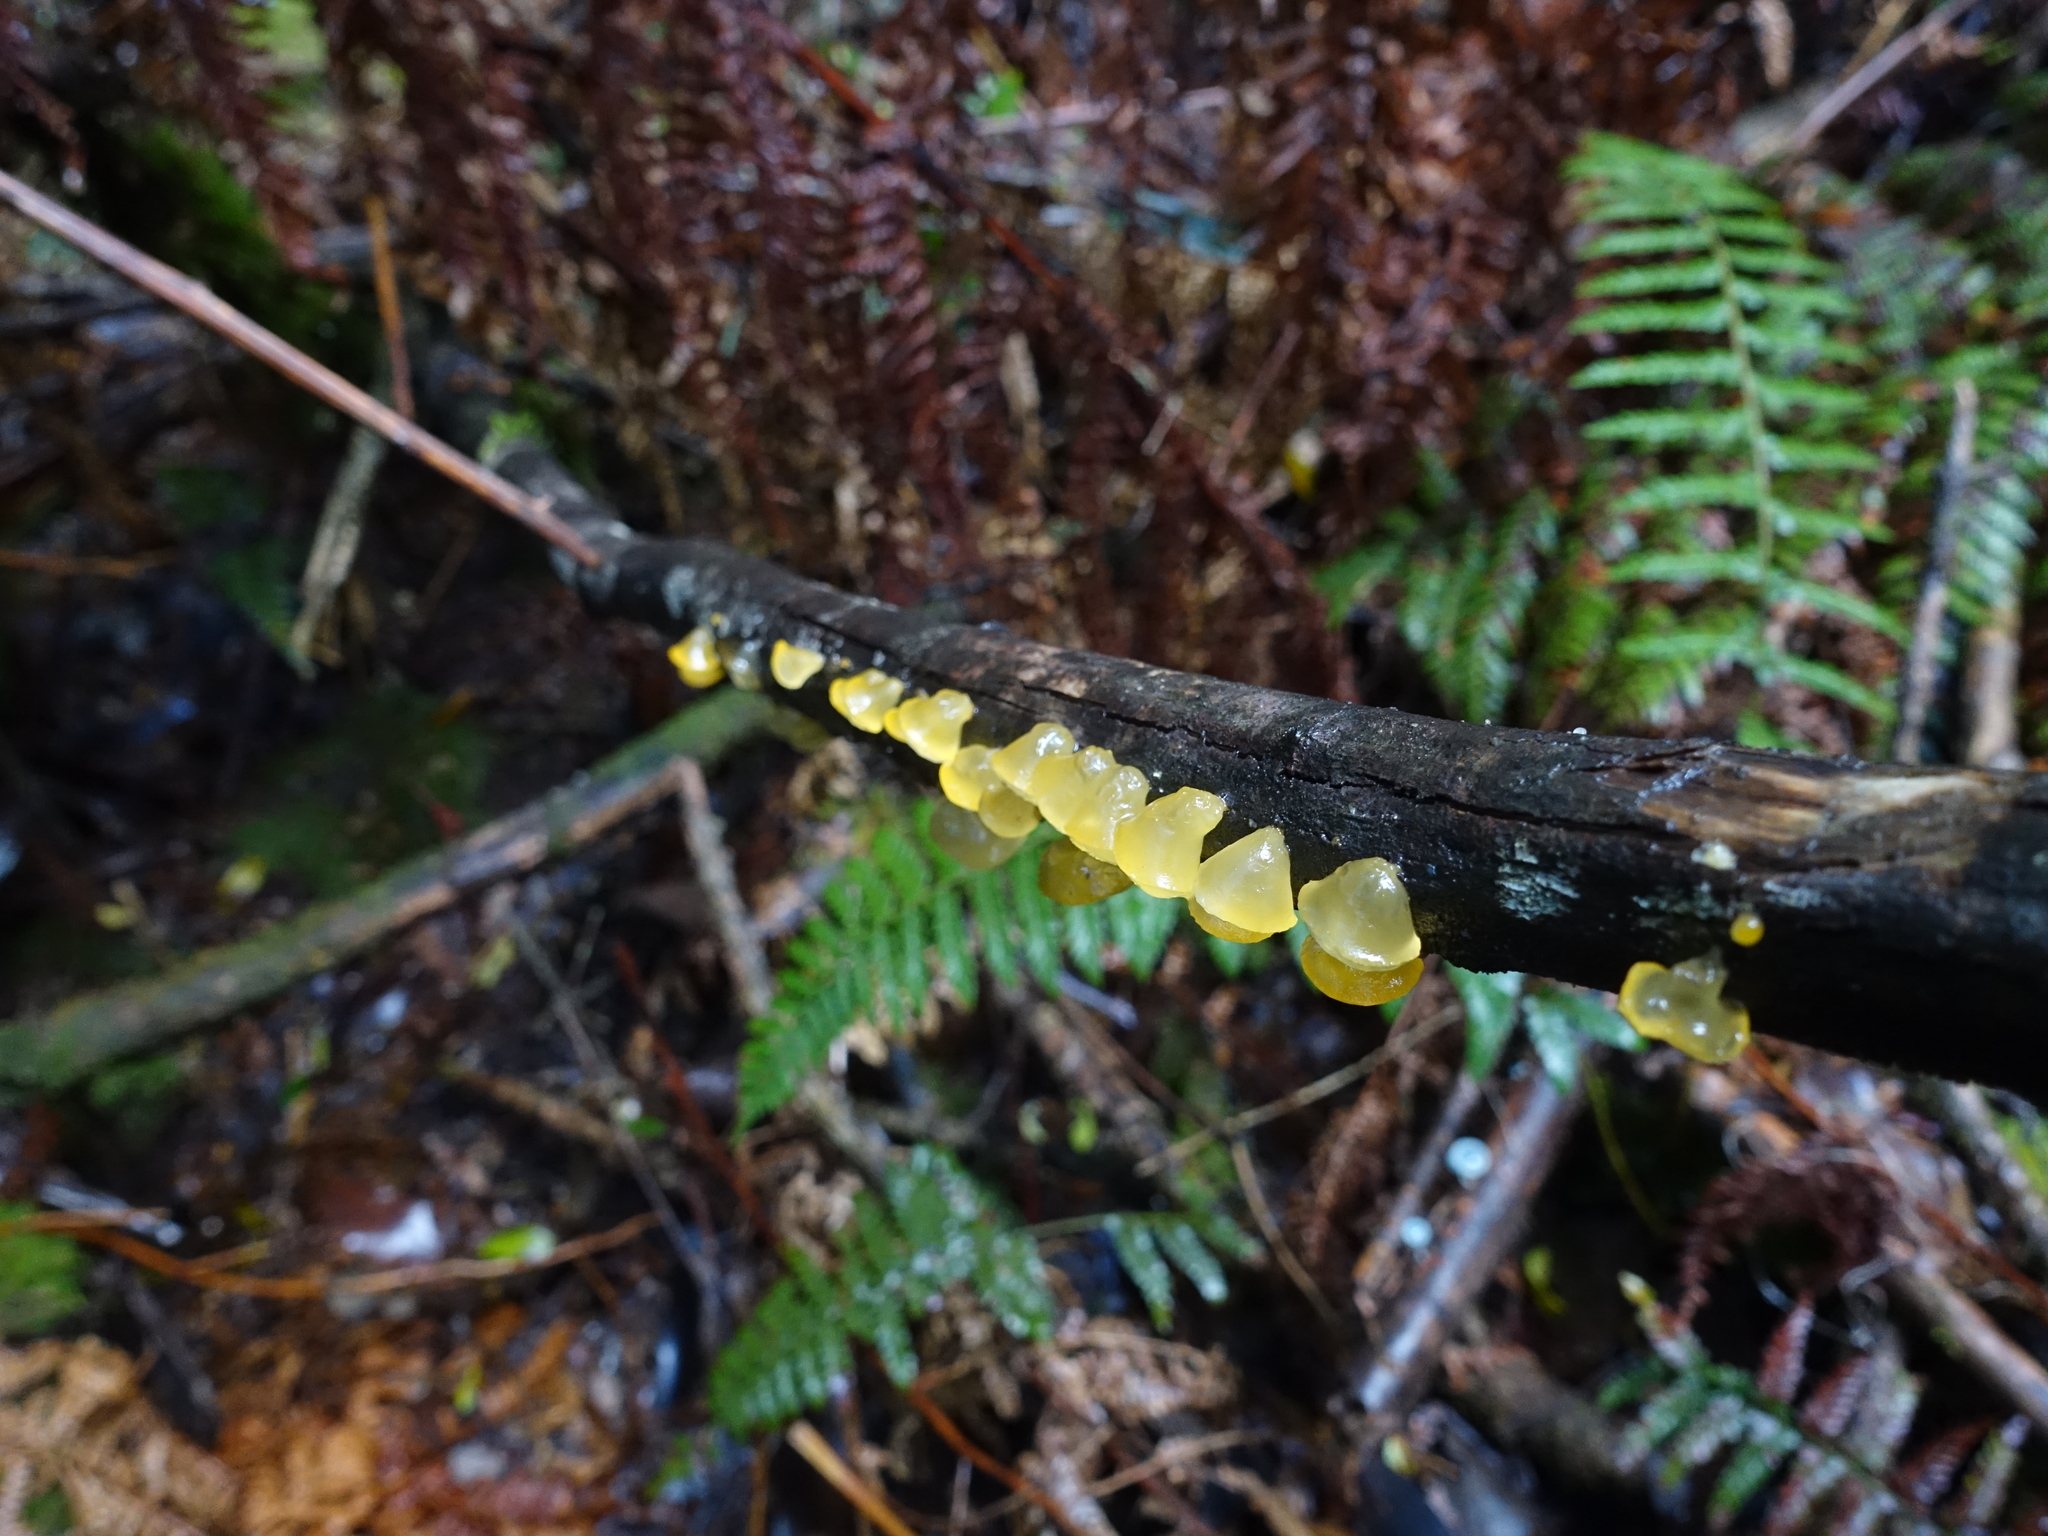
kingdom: Fungi
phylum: Basidiomycota
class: Dacrymycetes
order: Dacrymycetales
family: Dacrymycetaceae
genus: Heterotextus
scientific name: Heterotextus peziziformis
